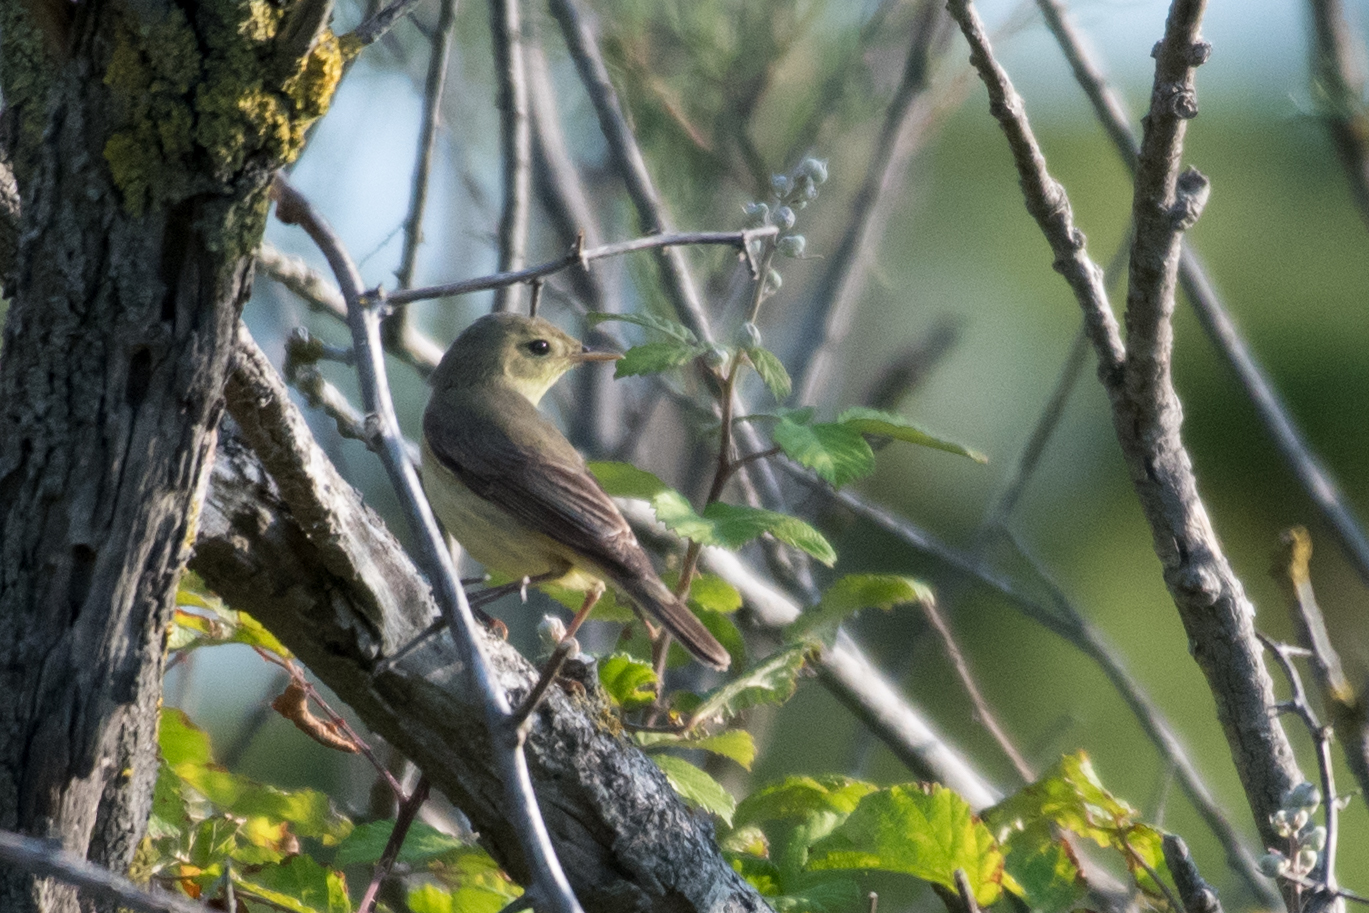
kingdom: Animalia
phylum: Chordata
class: Aves
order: Passeriformes
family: Acrocephalidae
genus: Acrocephalus
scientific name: Acrocephalus palustris
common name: Marsh warbler
